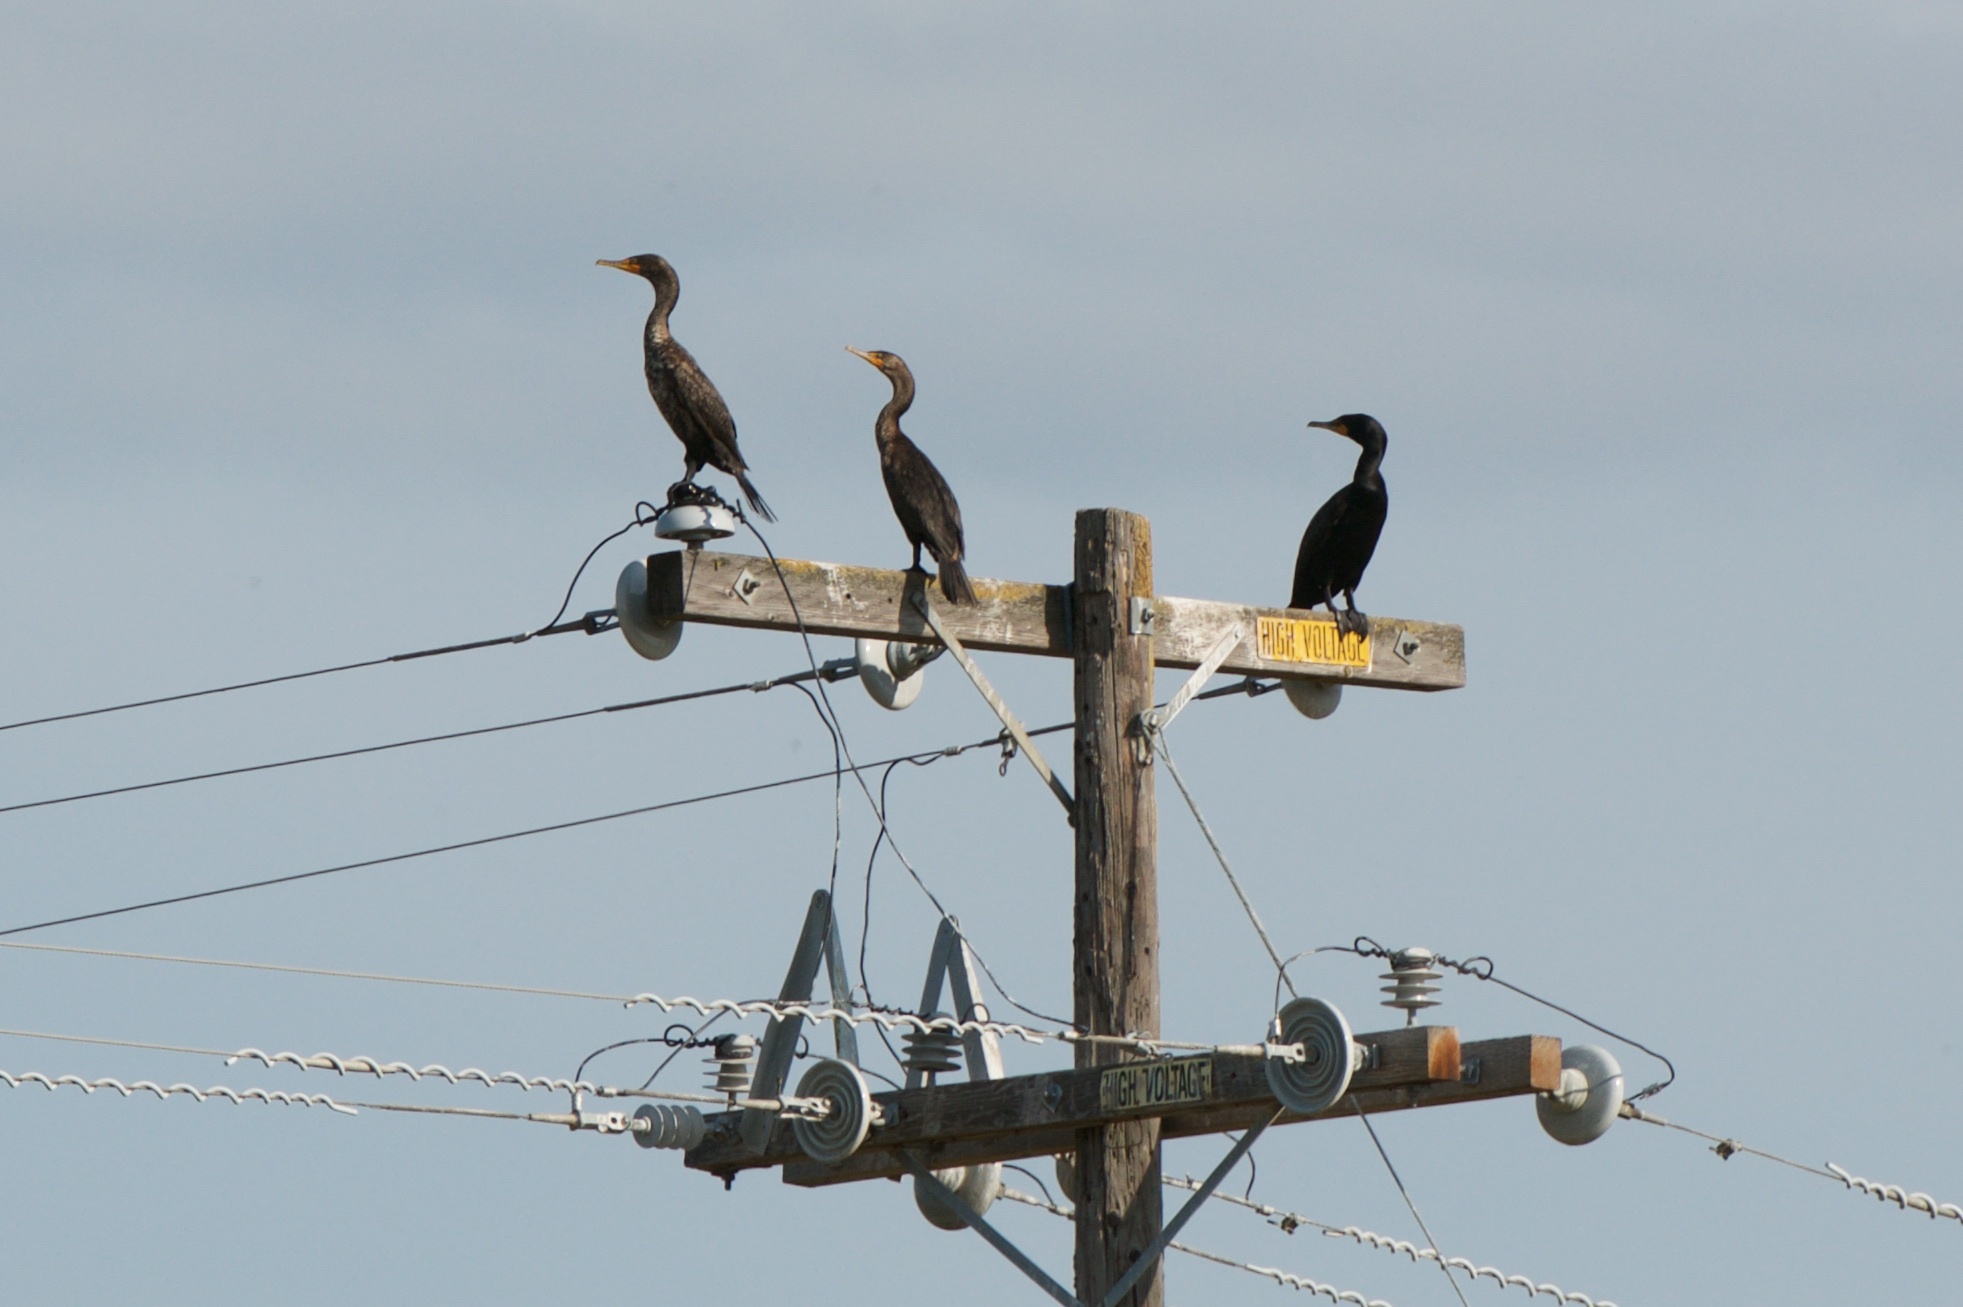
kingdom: Animalia
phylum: Chordata
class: Aves
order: Suliformes
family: Phalacrocoracidae
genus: Phalacrocorax
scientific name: Phalacrocorax auritus
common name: Double-crested cormorant
